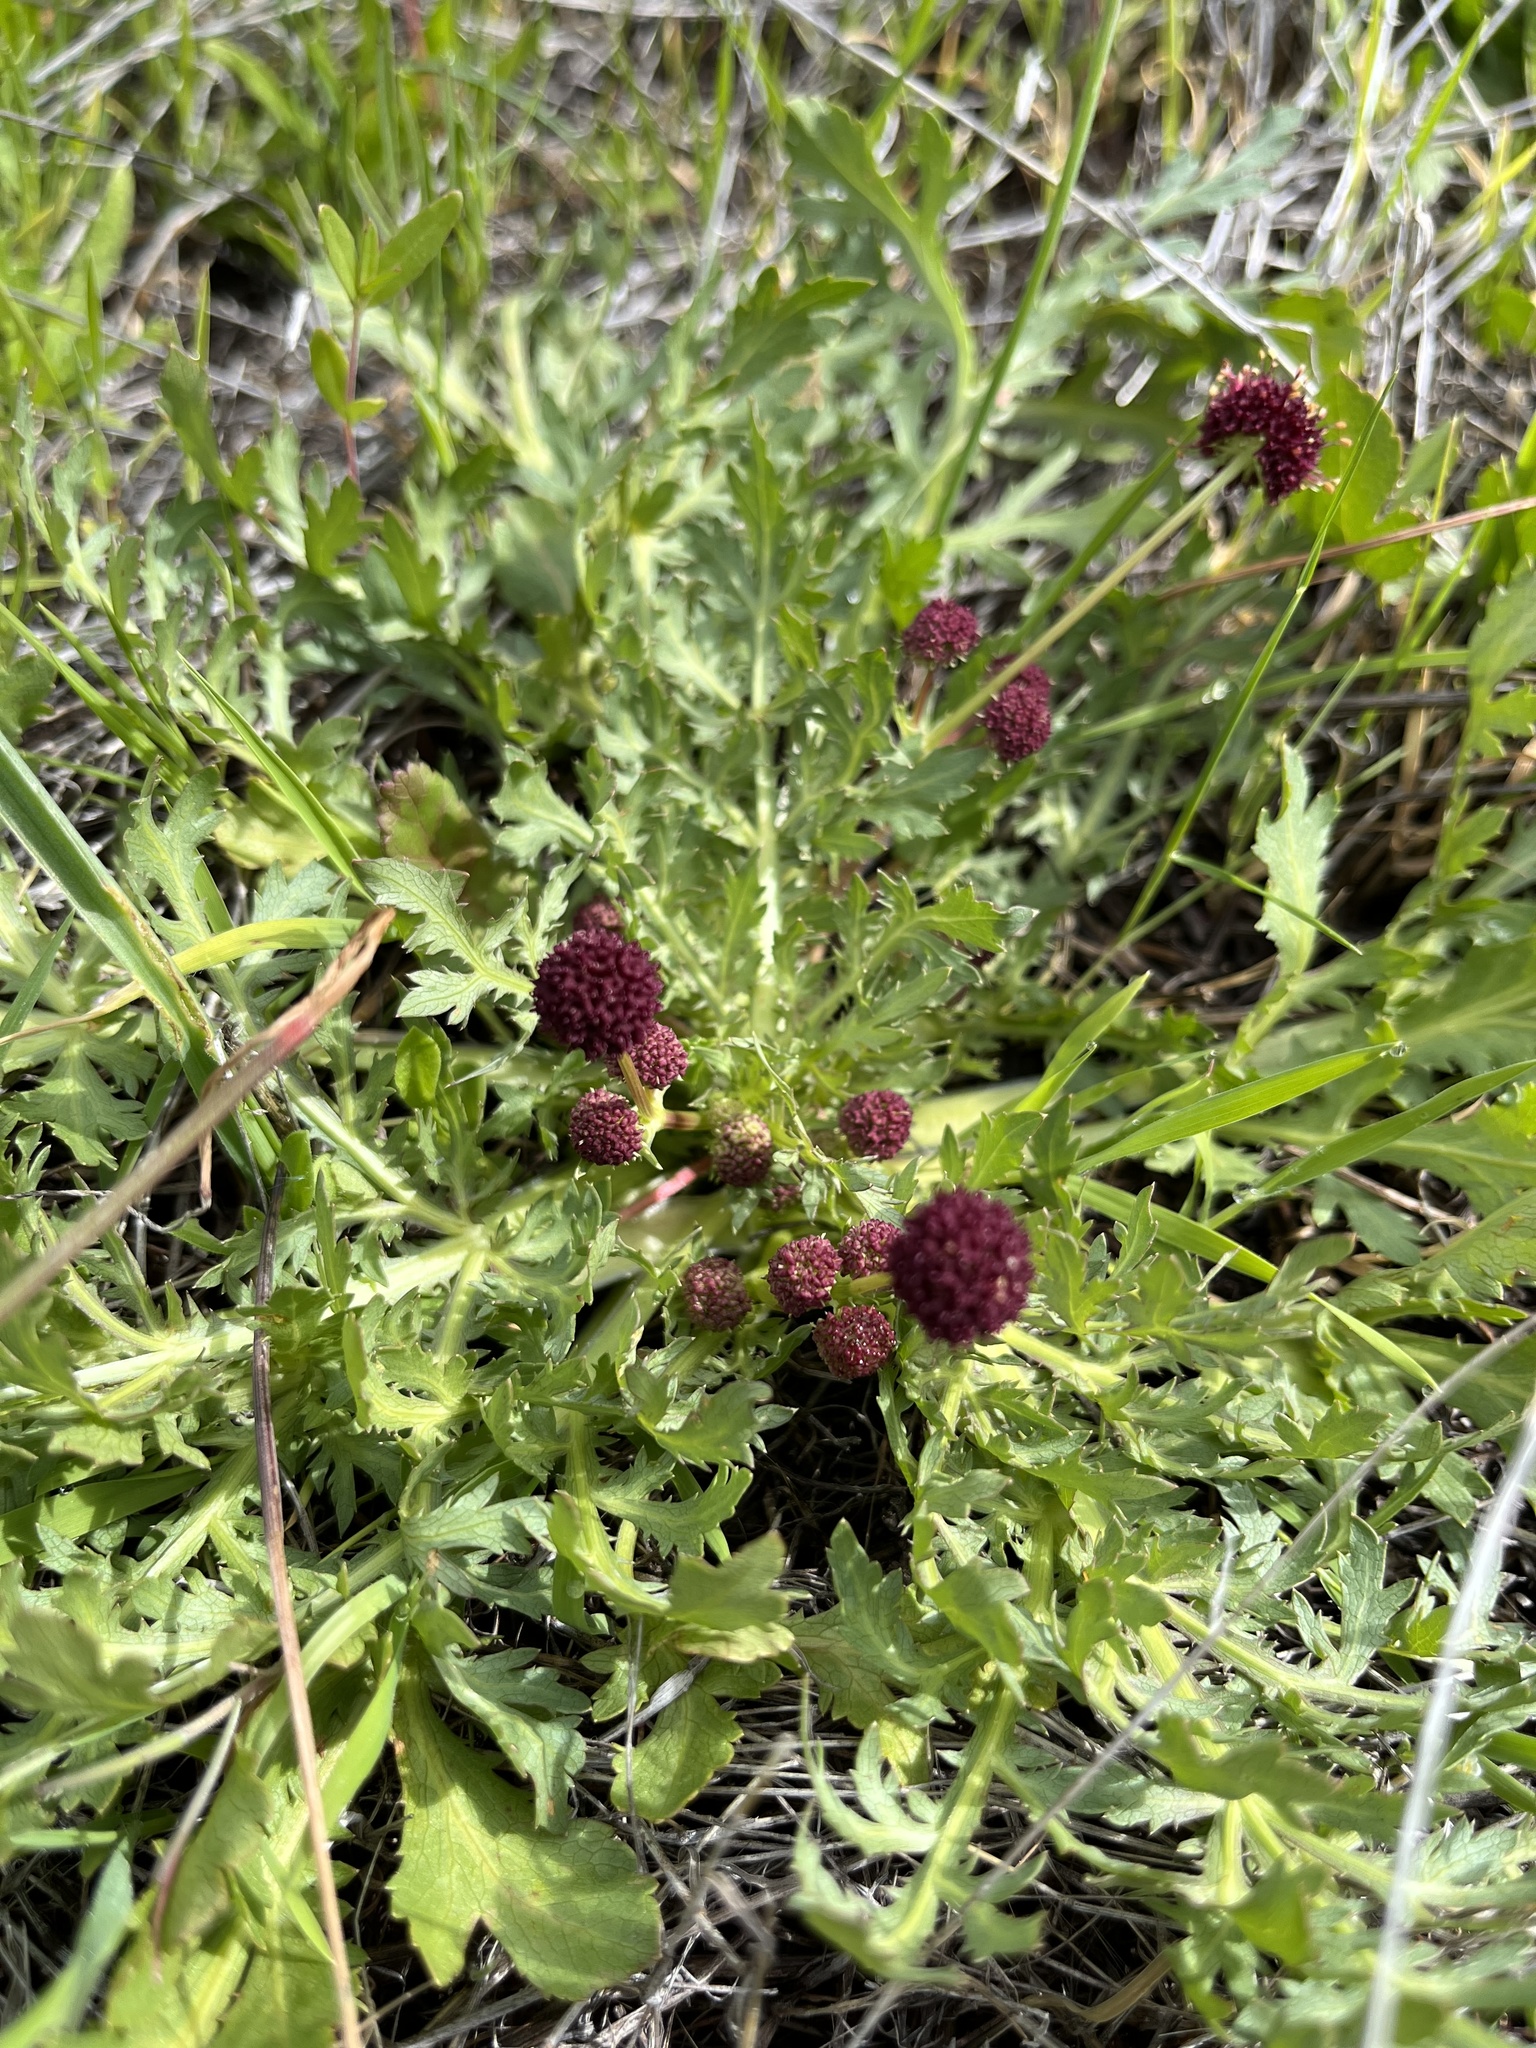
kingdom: Plantae
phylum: Tracheophyta
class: Magnoliopsida
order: Apiales
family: Apiaceae
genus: Sanicula
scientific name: Sanicula bipinnatifida
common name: Shoe-buttons
